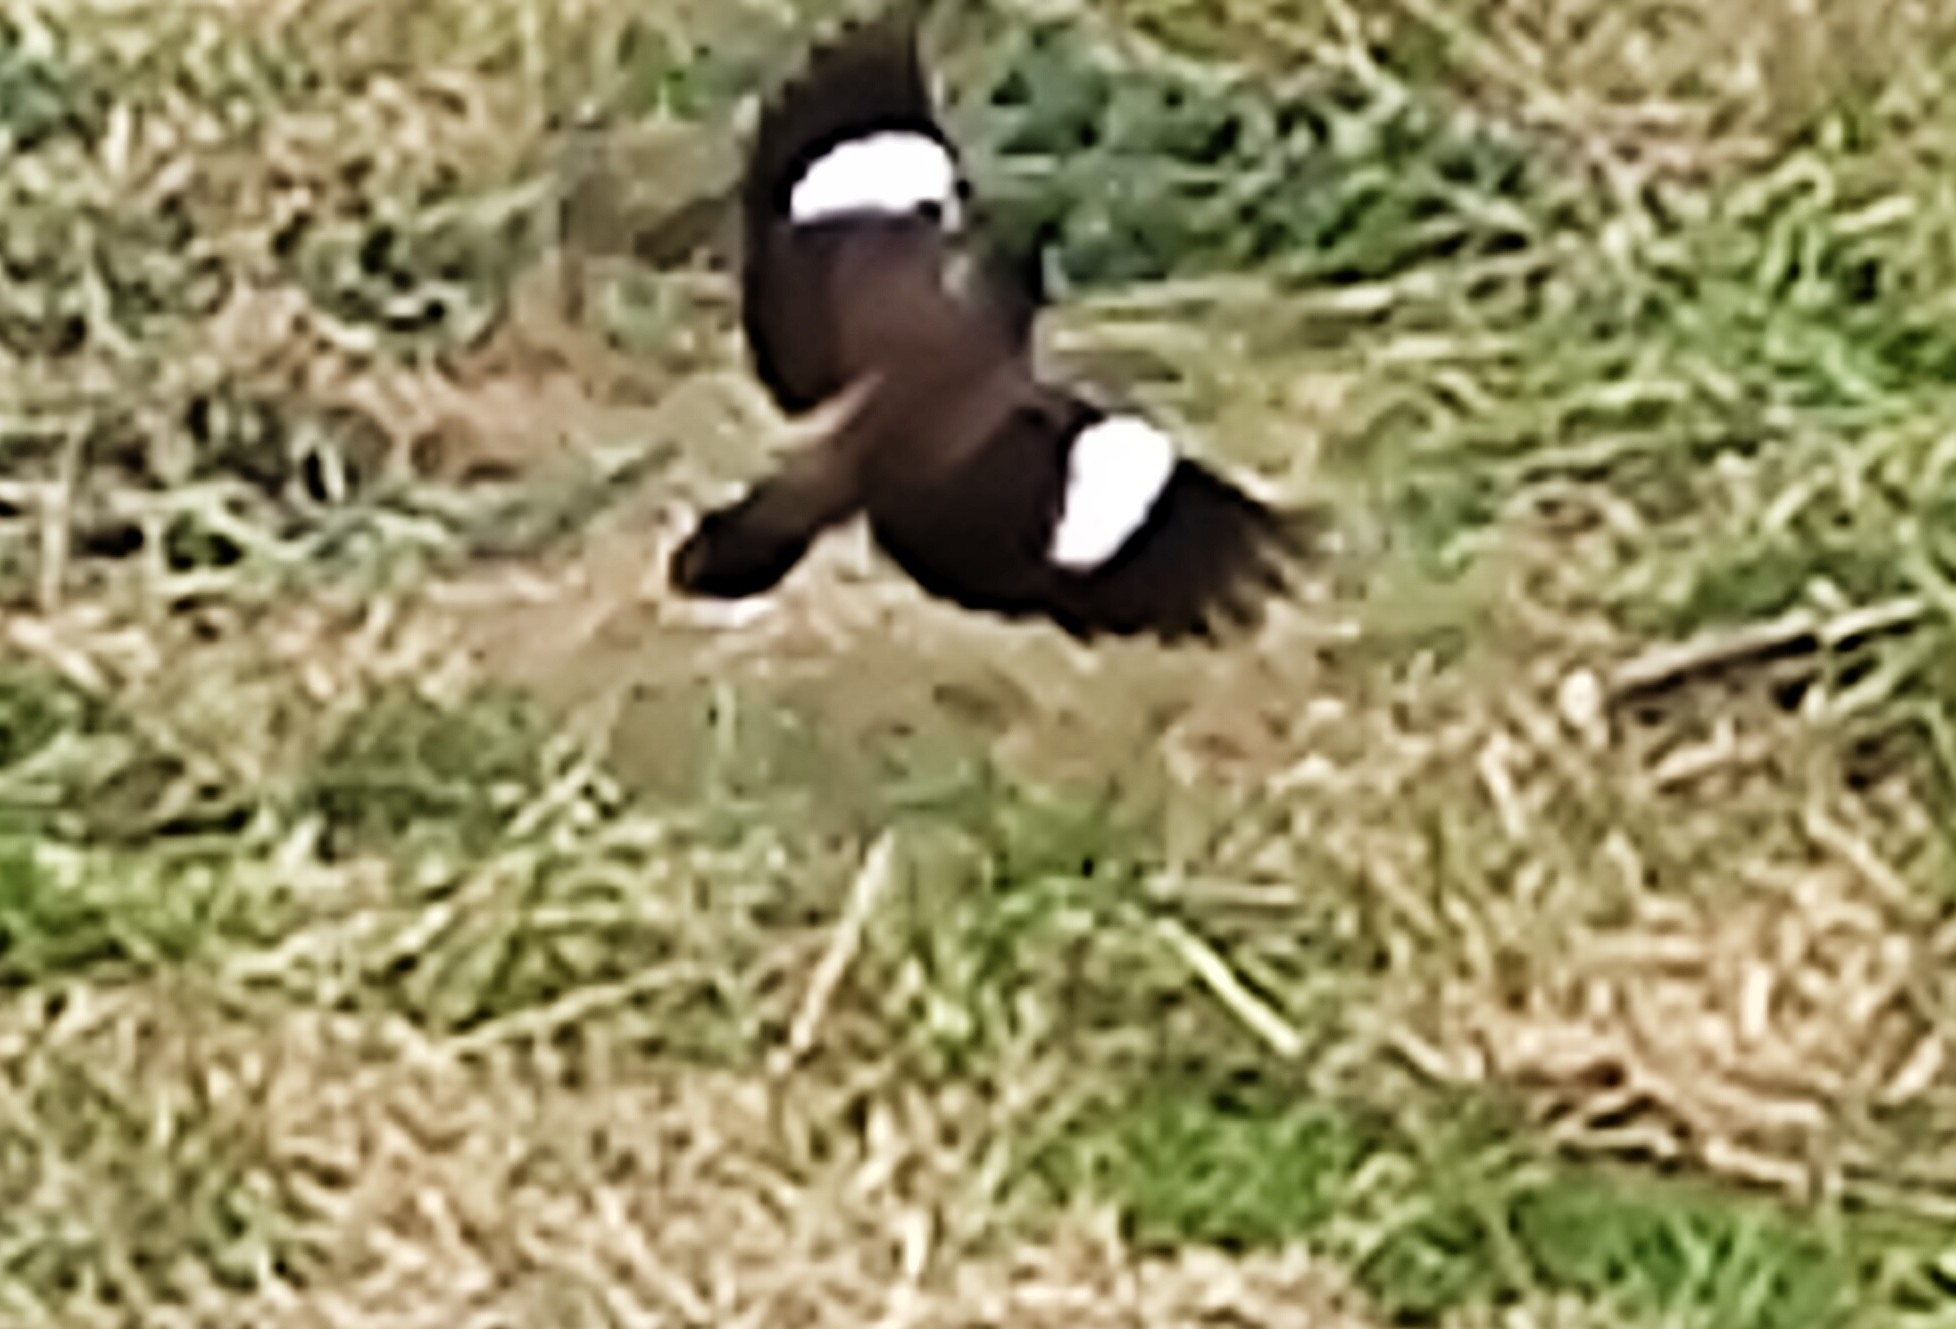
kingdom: Animalia
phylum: Chordata
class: Aves
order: Passeriformes
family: Sturnidae
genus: Acridotheres
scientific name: Acridotheres tristis
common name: Common myna
